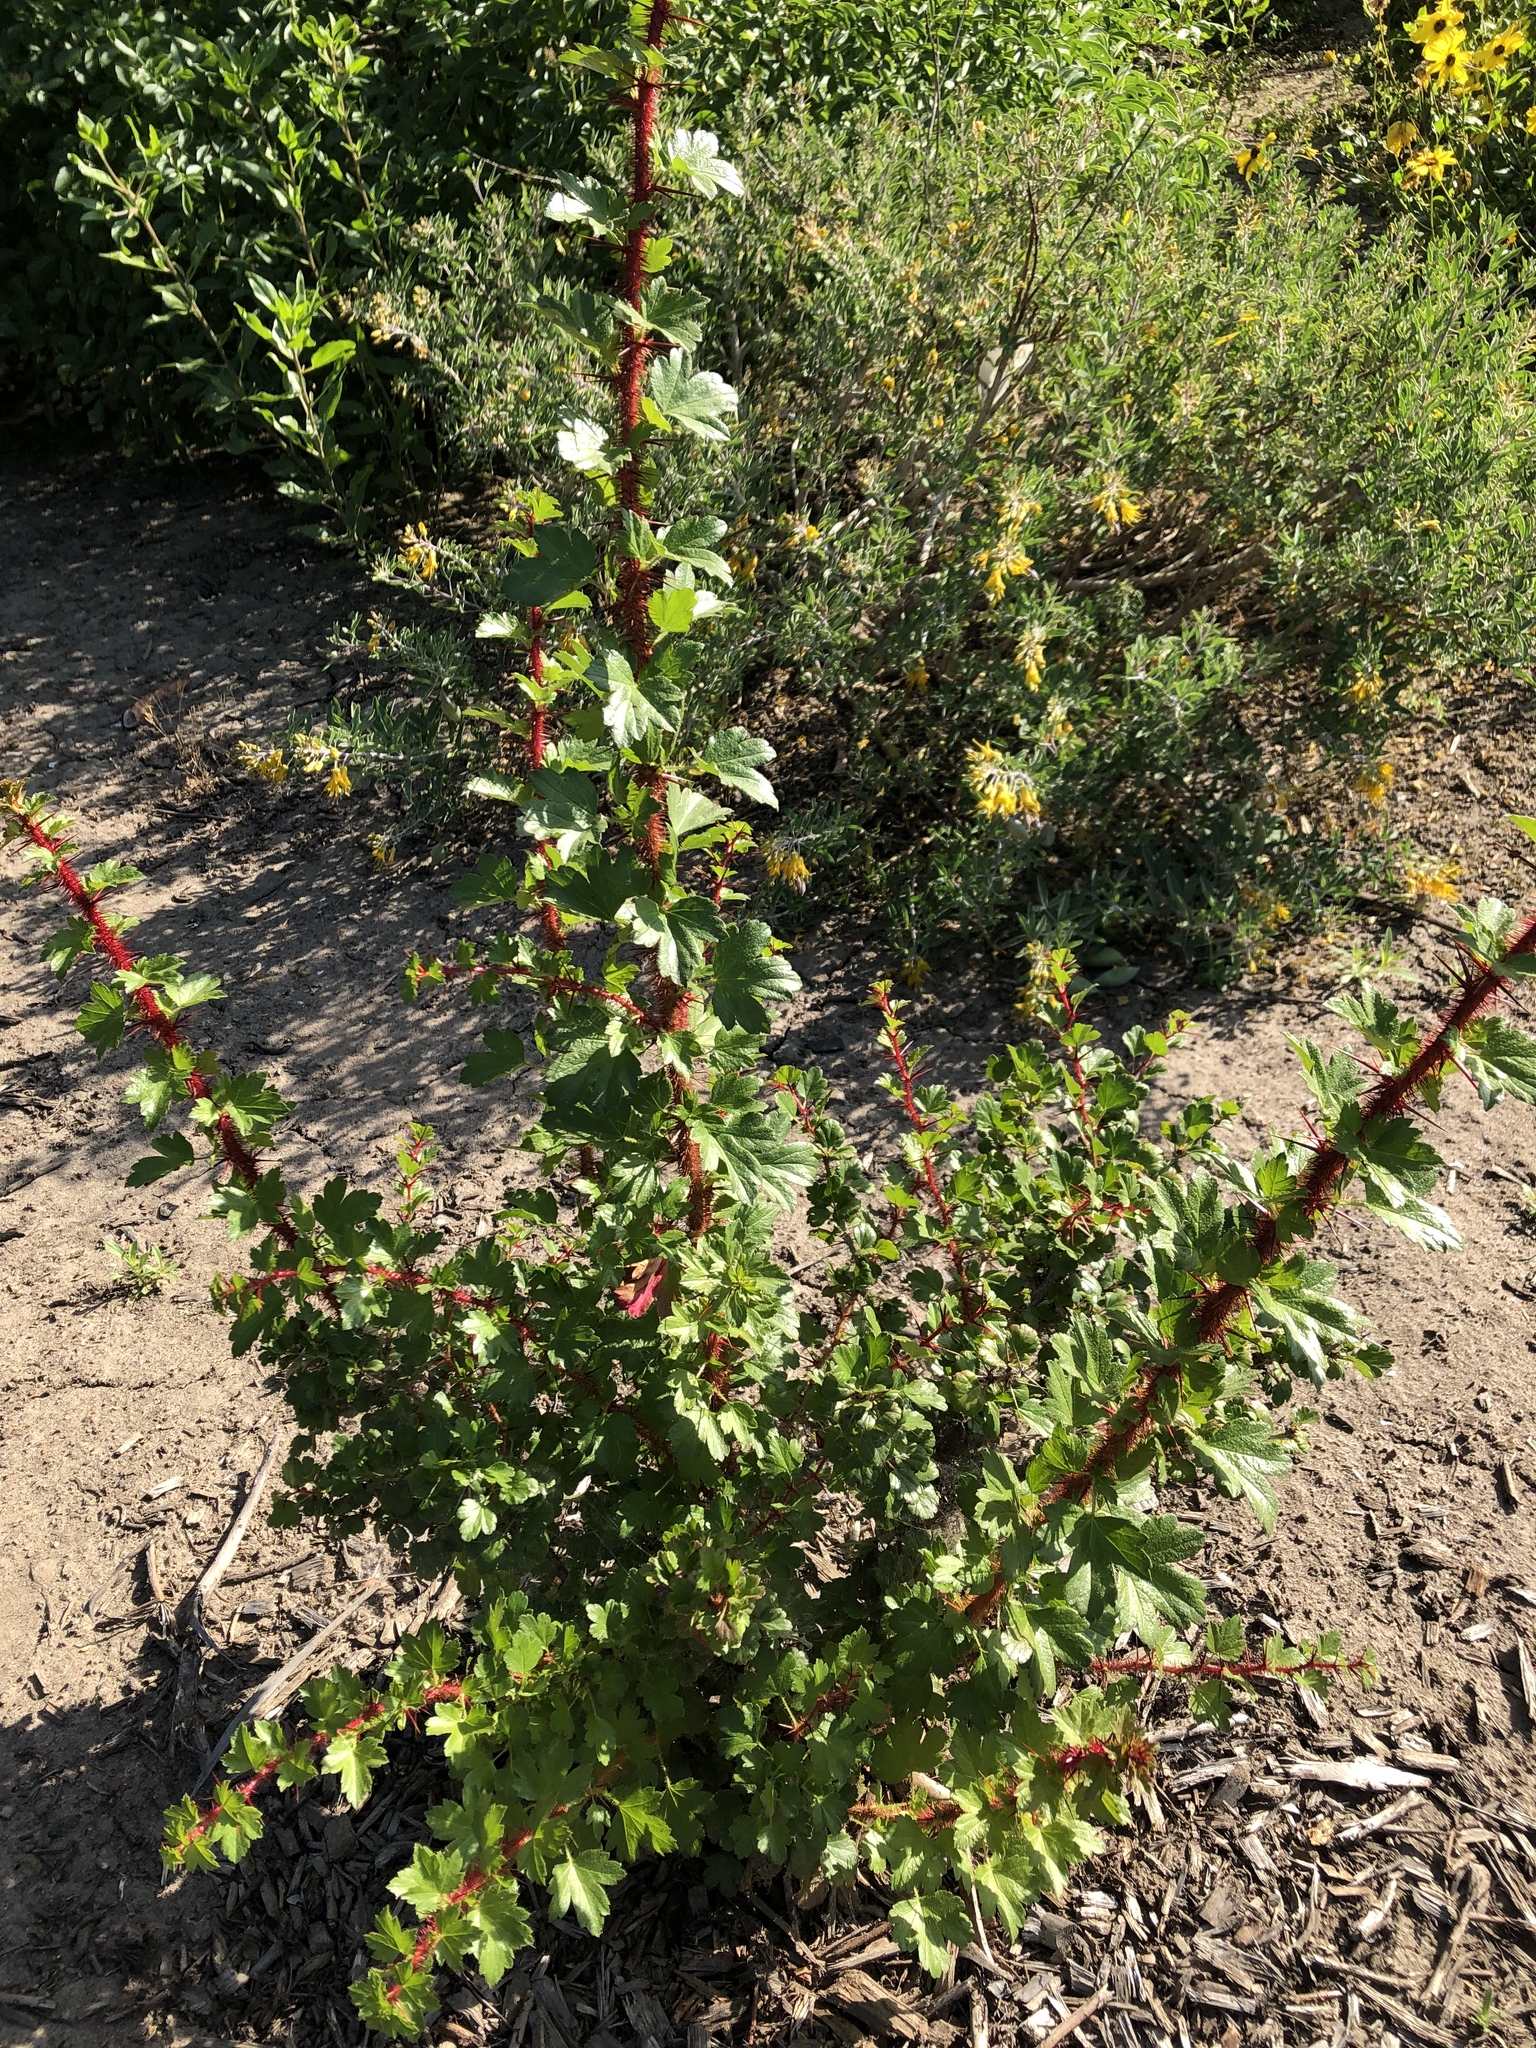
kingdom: Plantae
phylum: Tracheophyta
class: Magnoliopsida
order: Saxifragales
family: Grossulariaceae
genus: Ribes
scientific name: Ribes speciosum
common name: Fuchsia-flower gooseberry
